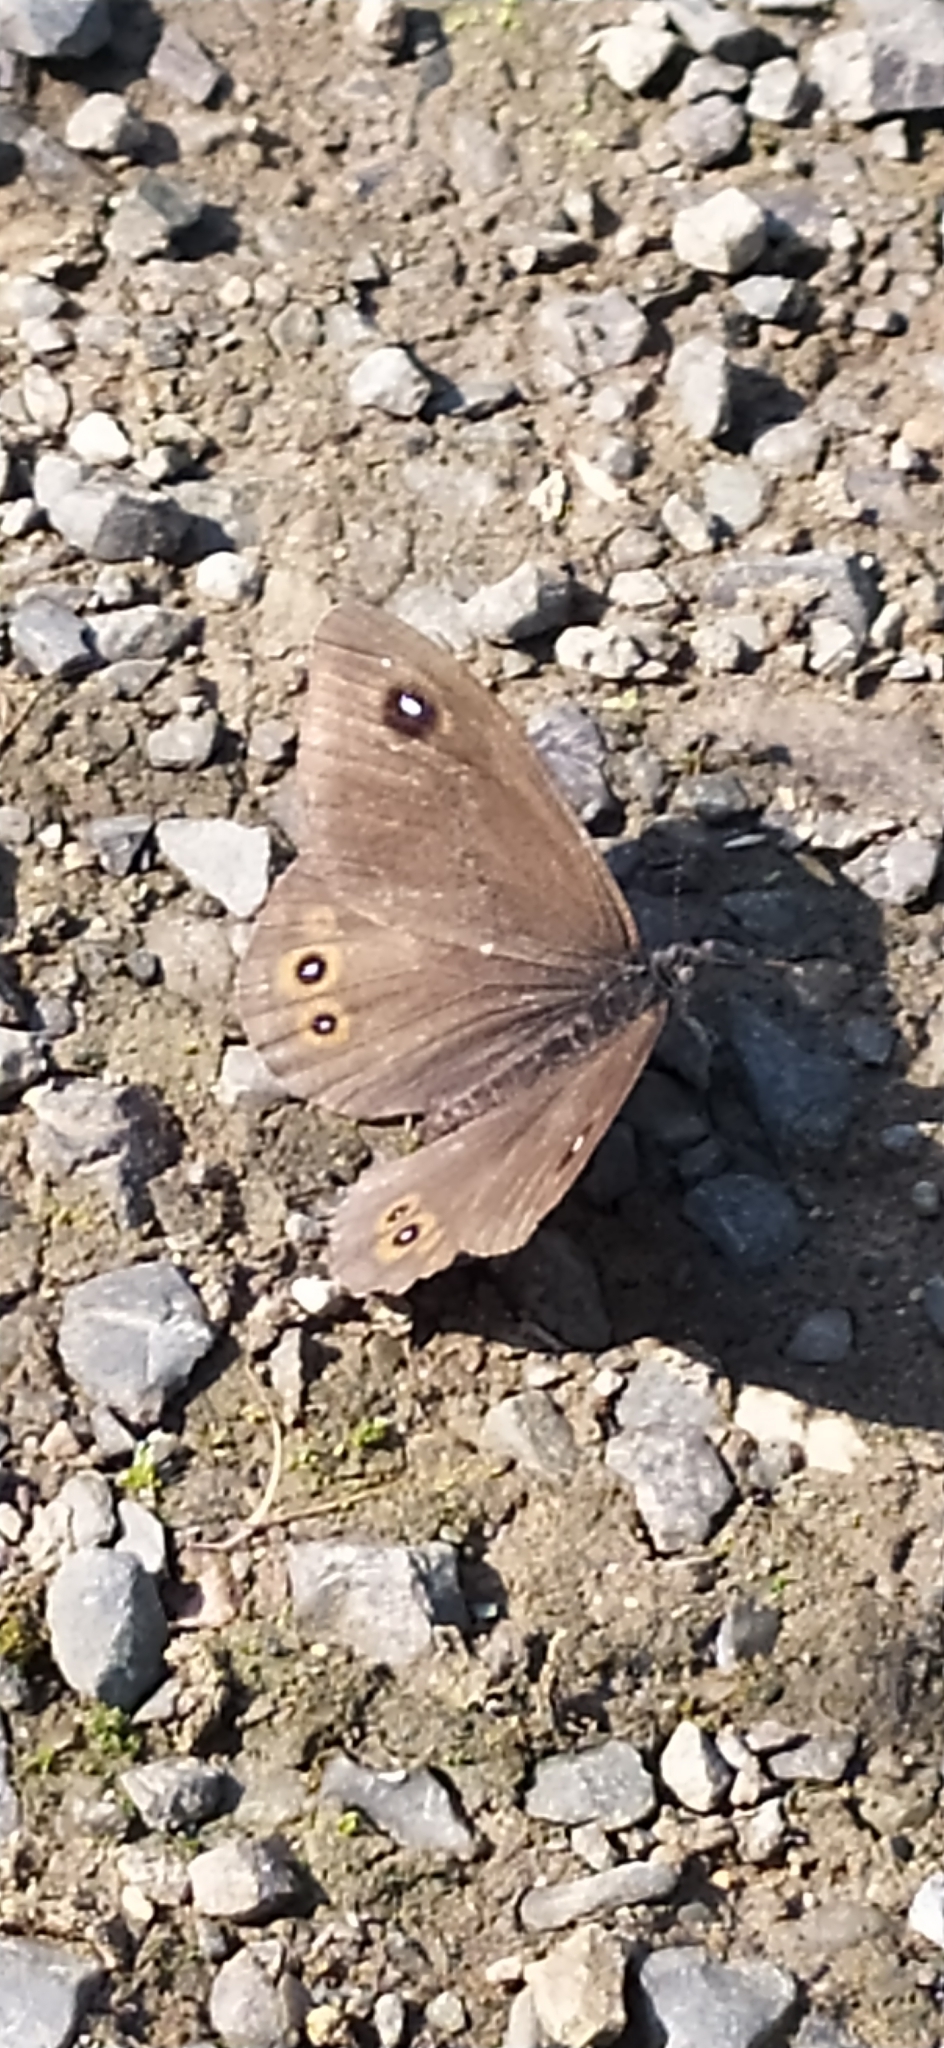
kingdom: Animalia
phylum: Arthropoda
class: Insecta
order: Lepidoptera
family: Nymphalidae
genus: Pararge
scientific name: Pararge Lasiommata maera
